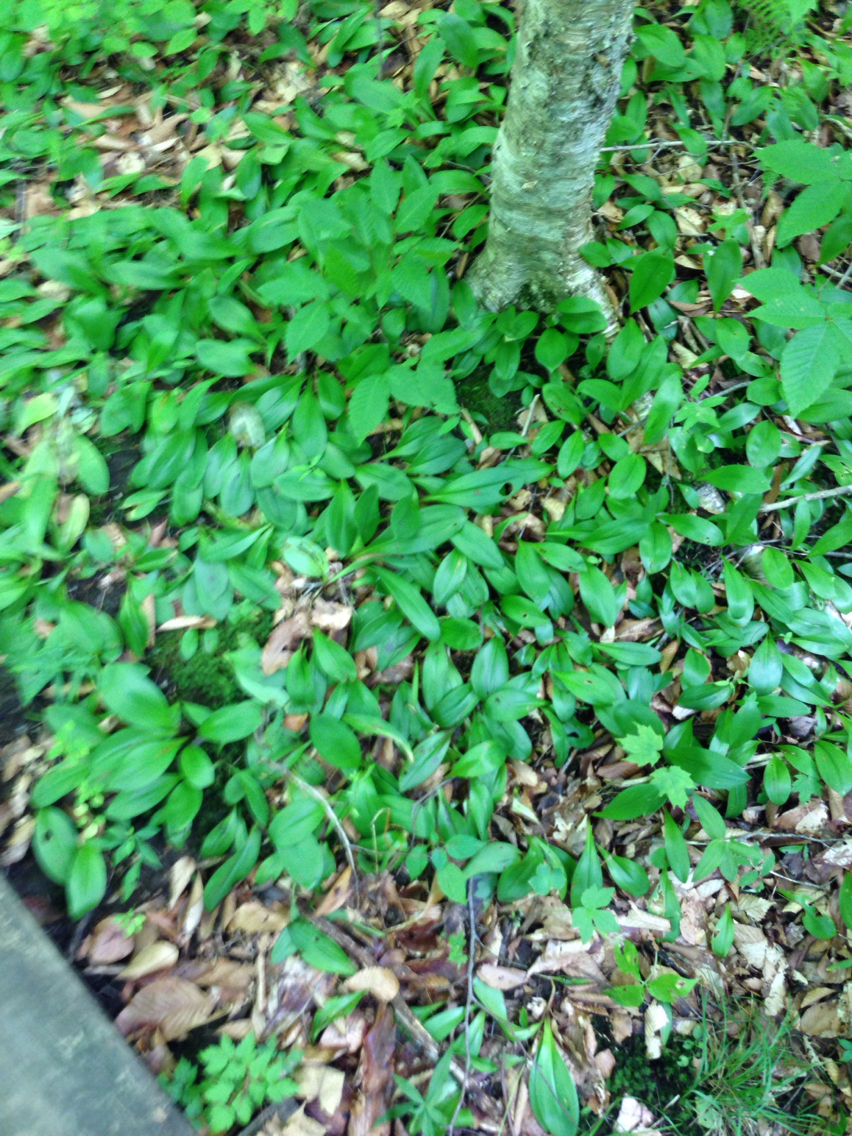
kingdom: Plantae
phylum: Tracheophyta
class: Liliopsida
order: Liliales
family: Liliaceae
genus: Clintonia
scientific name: Clintonia borealis
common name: Yellow clintonia
